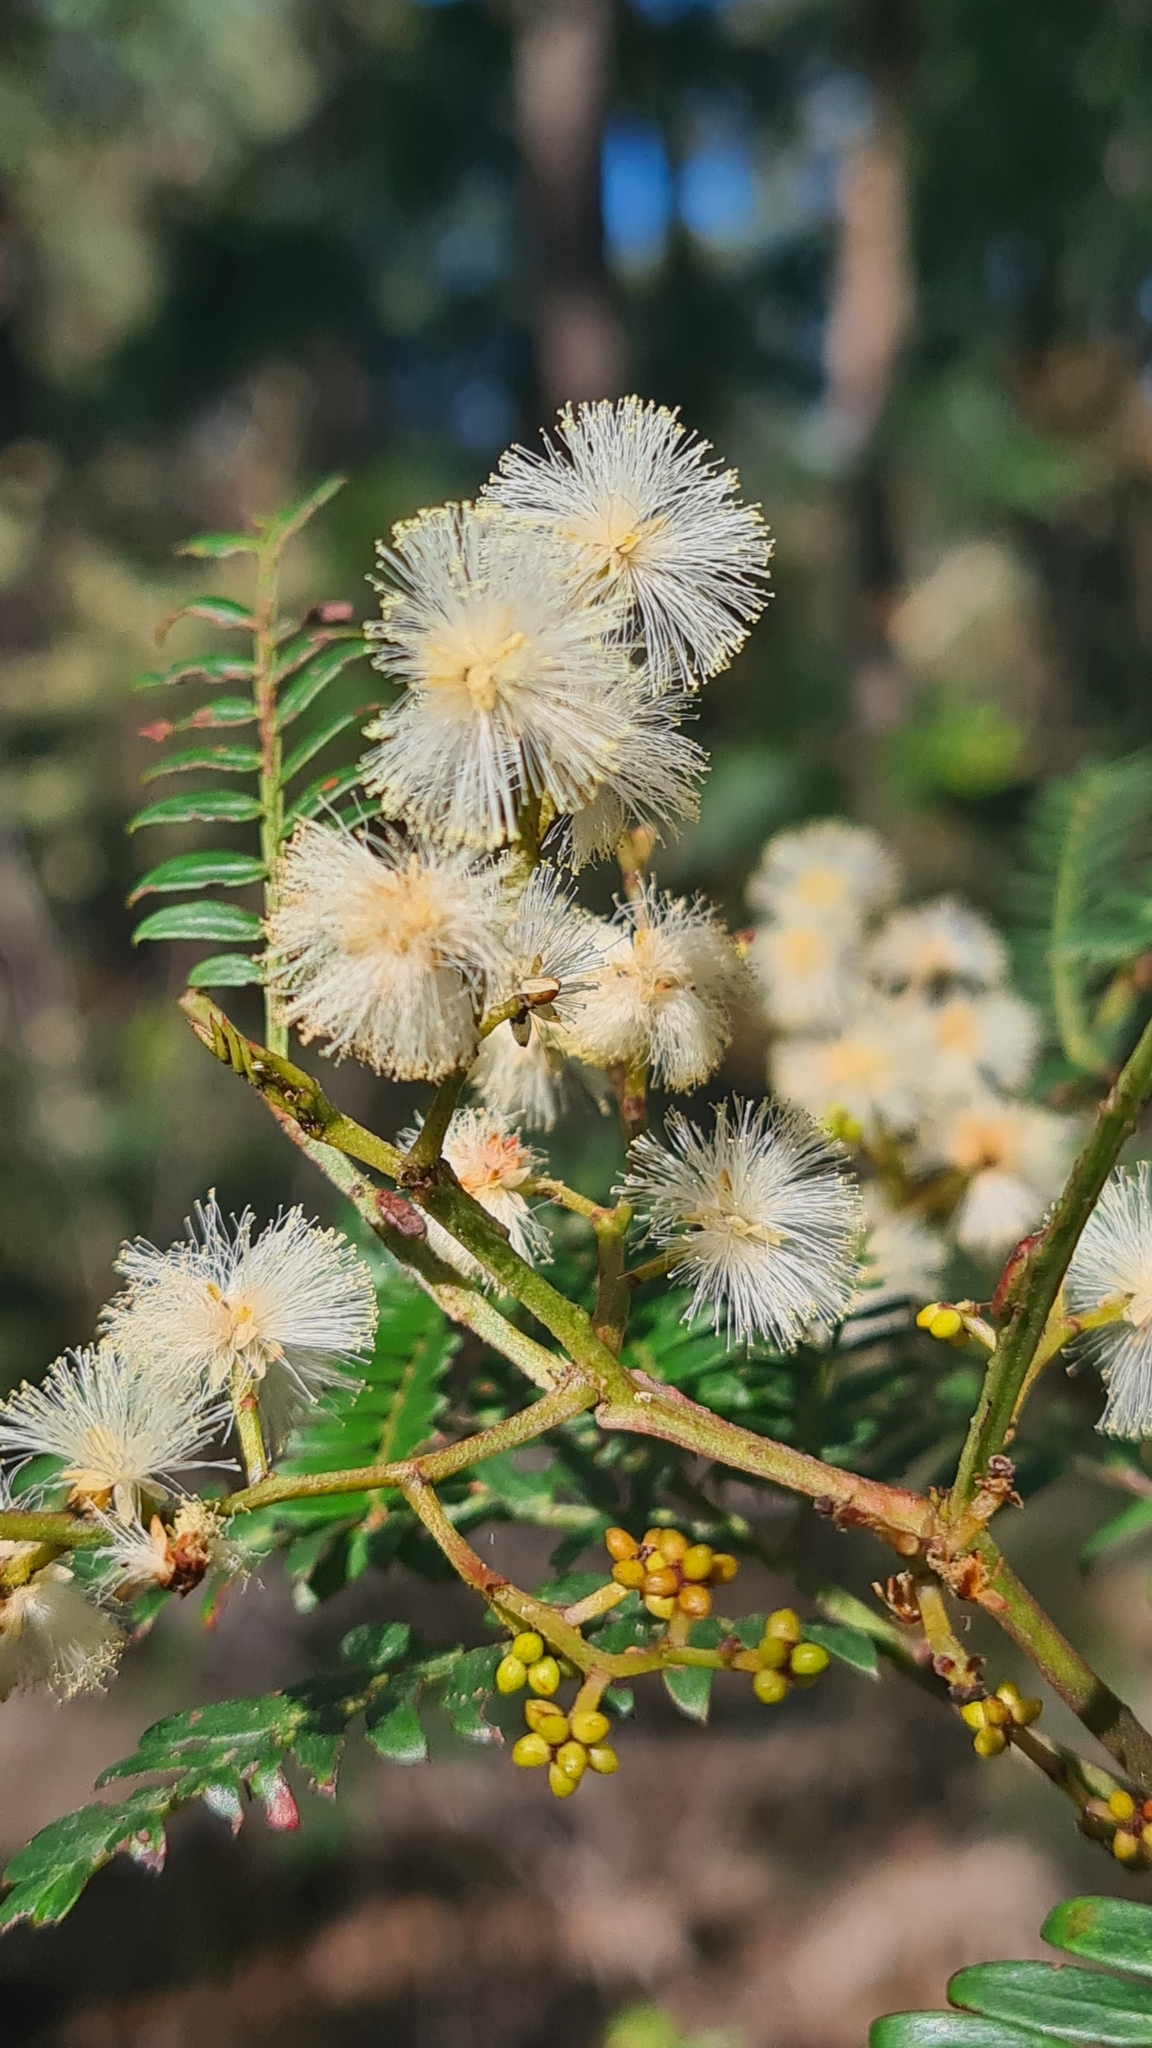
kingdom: Plantae
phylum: Tracheophyta
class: Magnoliopsida
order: Fabales
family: Fabaceae
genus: Acacia
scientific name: Acacia terminalis
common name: Cedar wattle
